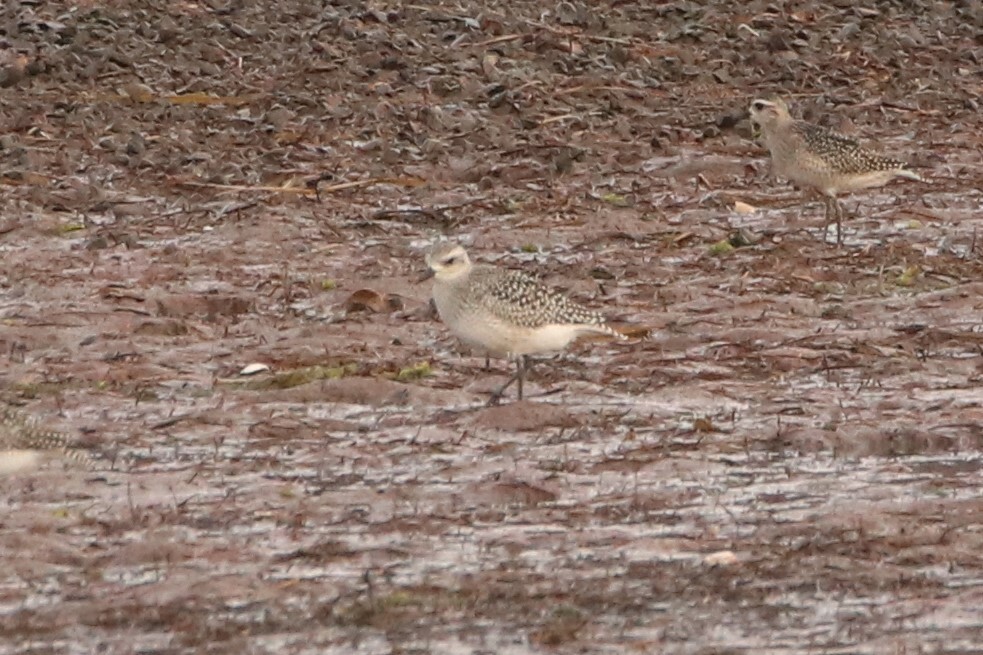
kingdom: Animalia
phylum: Chordata
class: Aves
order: Charadriiformes
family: Charadriidae
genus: Pluvialis
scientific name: Pluvialis squatarola
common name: Grey plover
